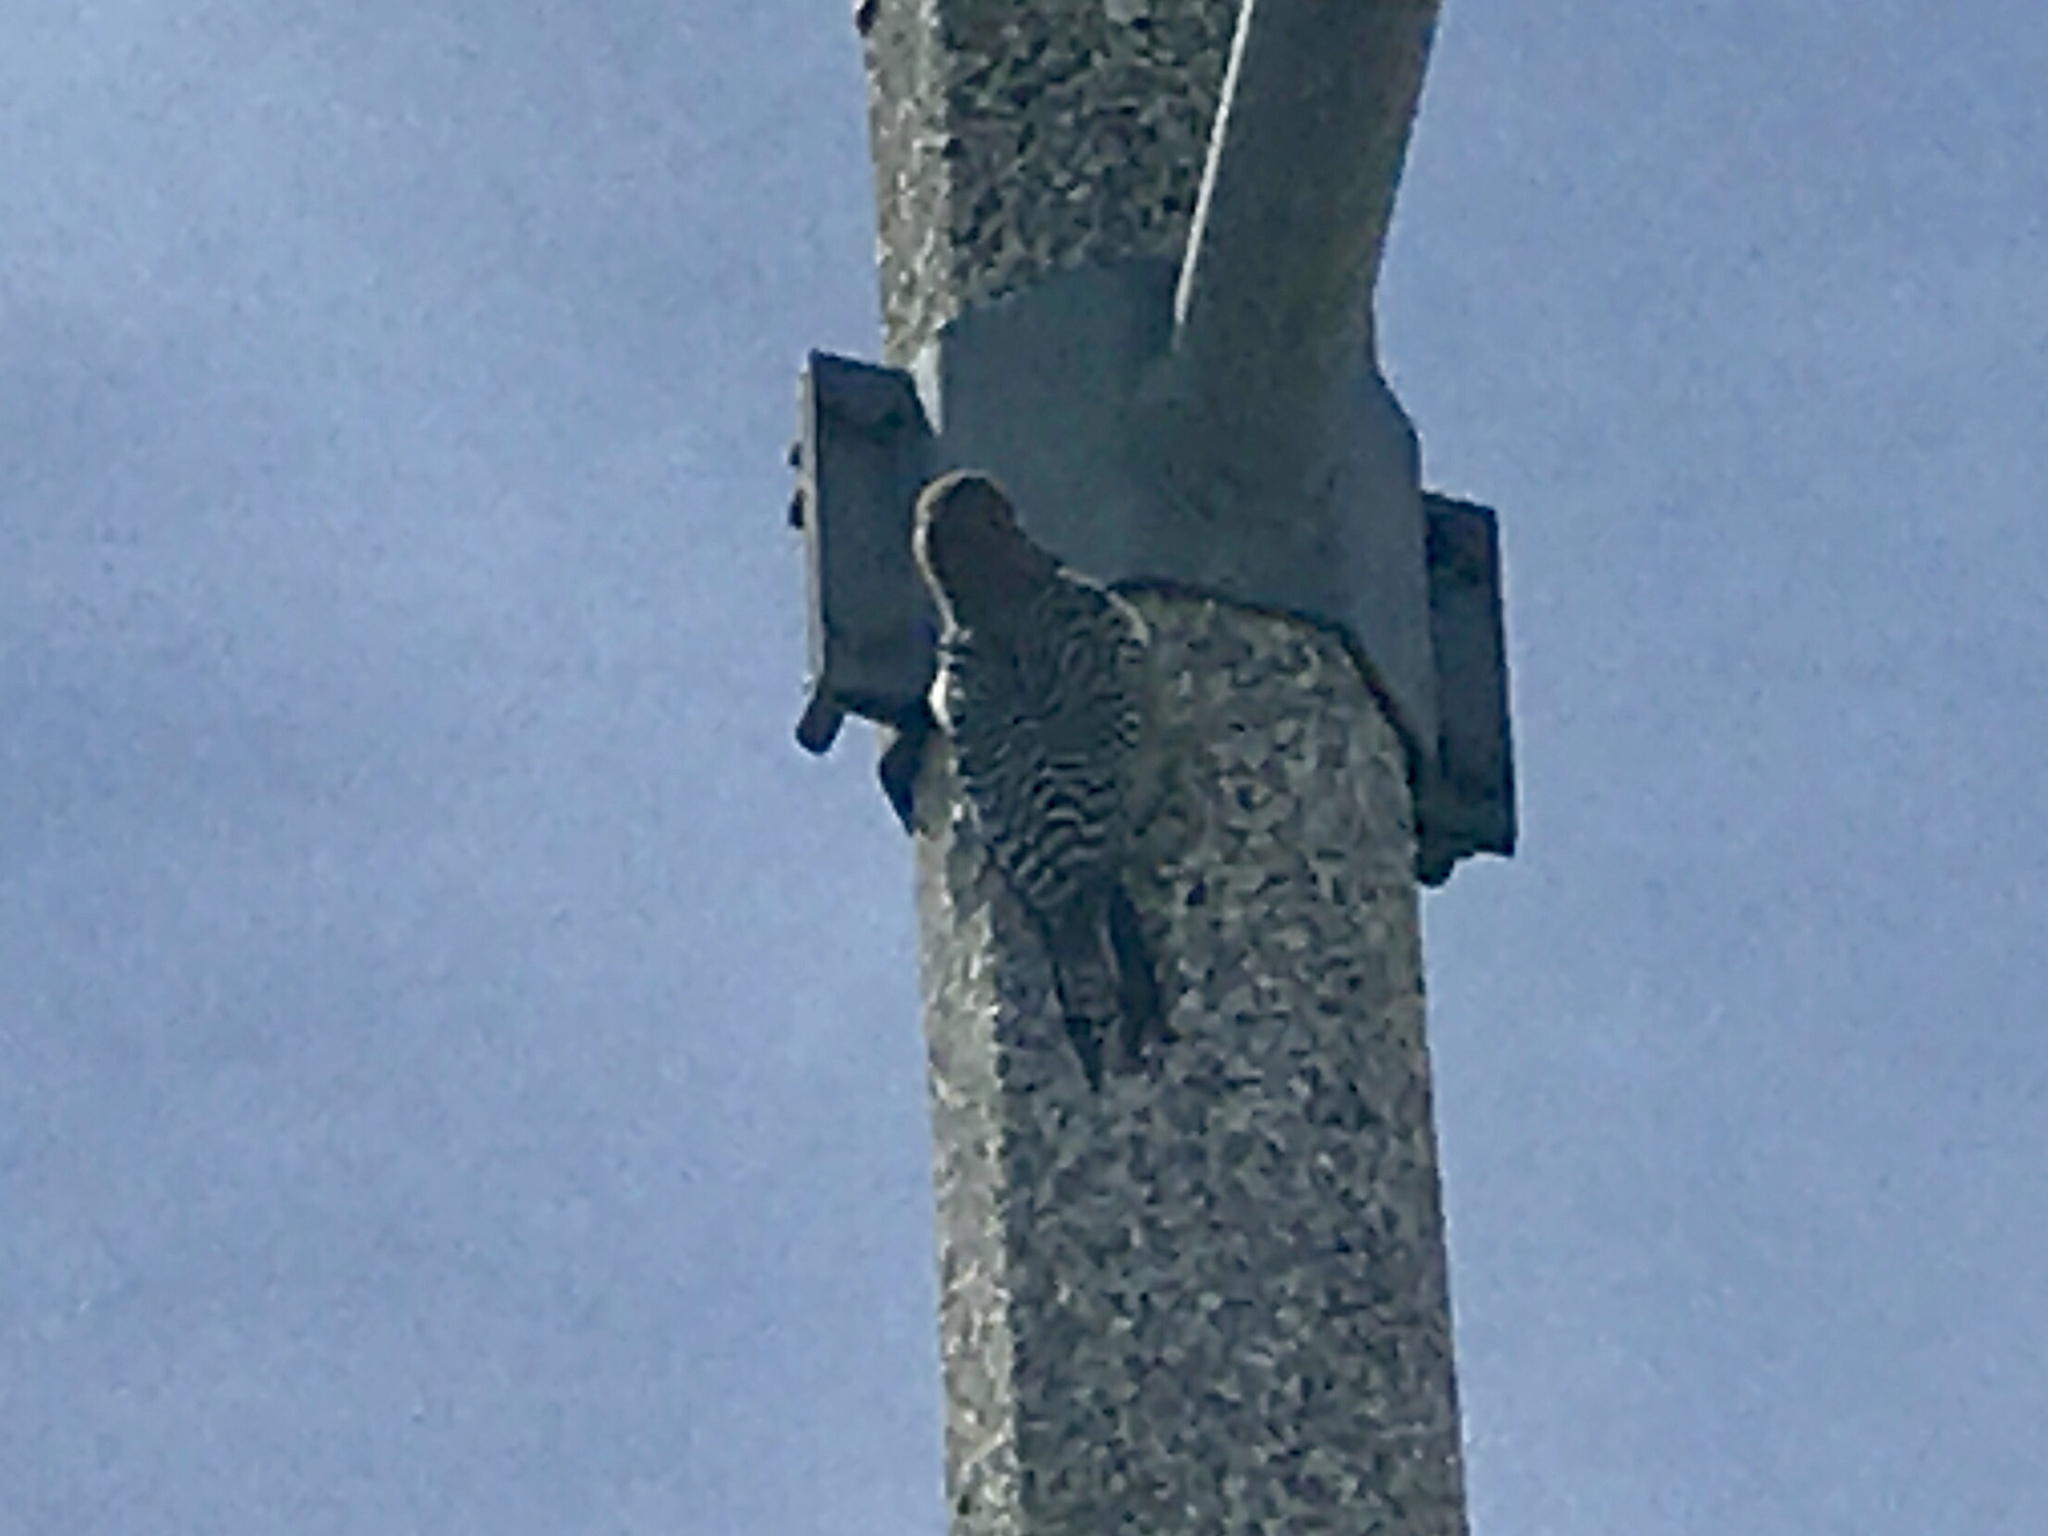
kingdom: Animalia
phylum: Chordata
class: Aves
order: Piciformes
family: Picidae
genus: Melanerpes
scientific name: Melanerpes uropygialis
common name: Gila woodpecker
